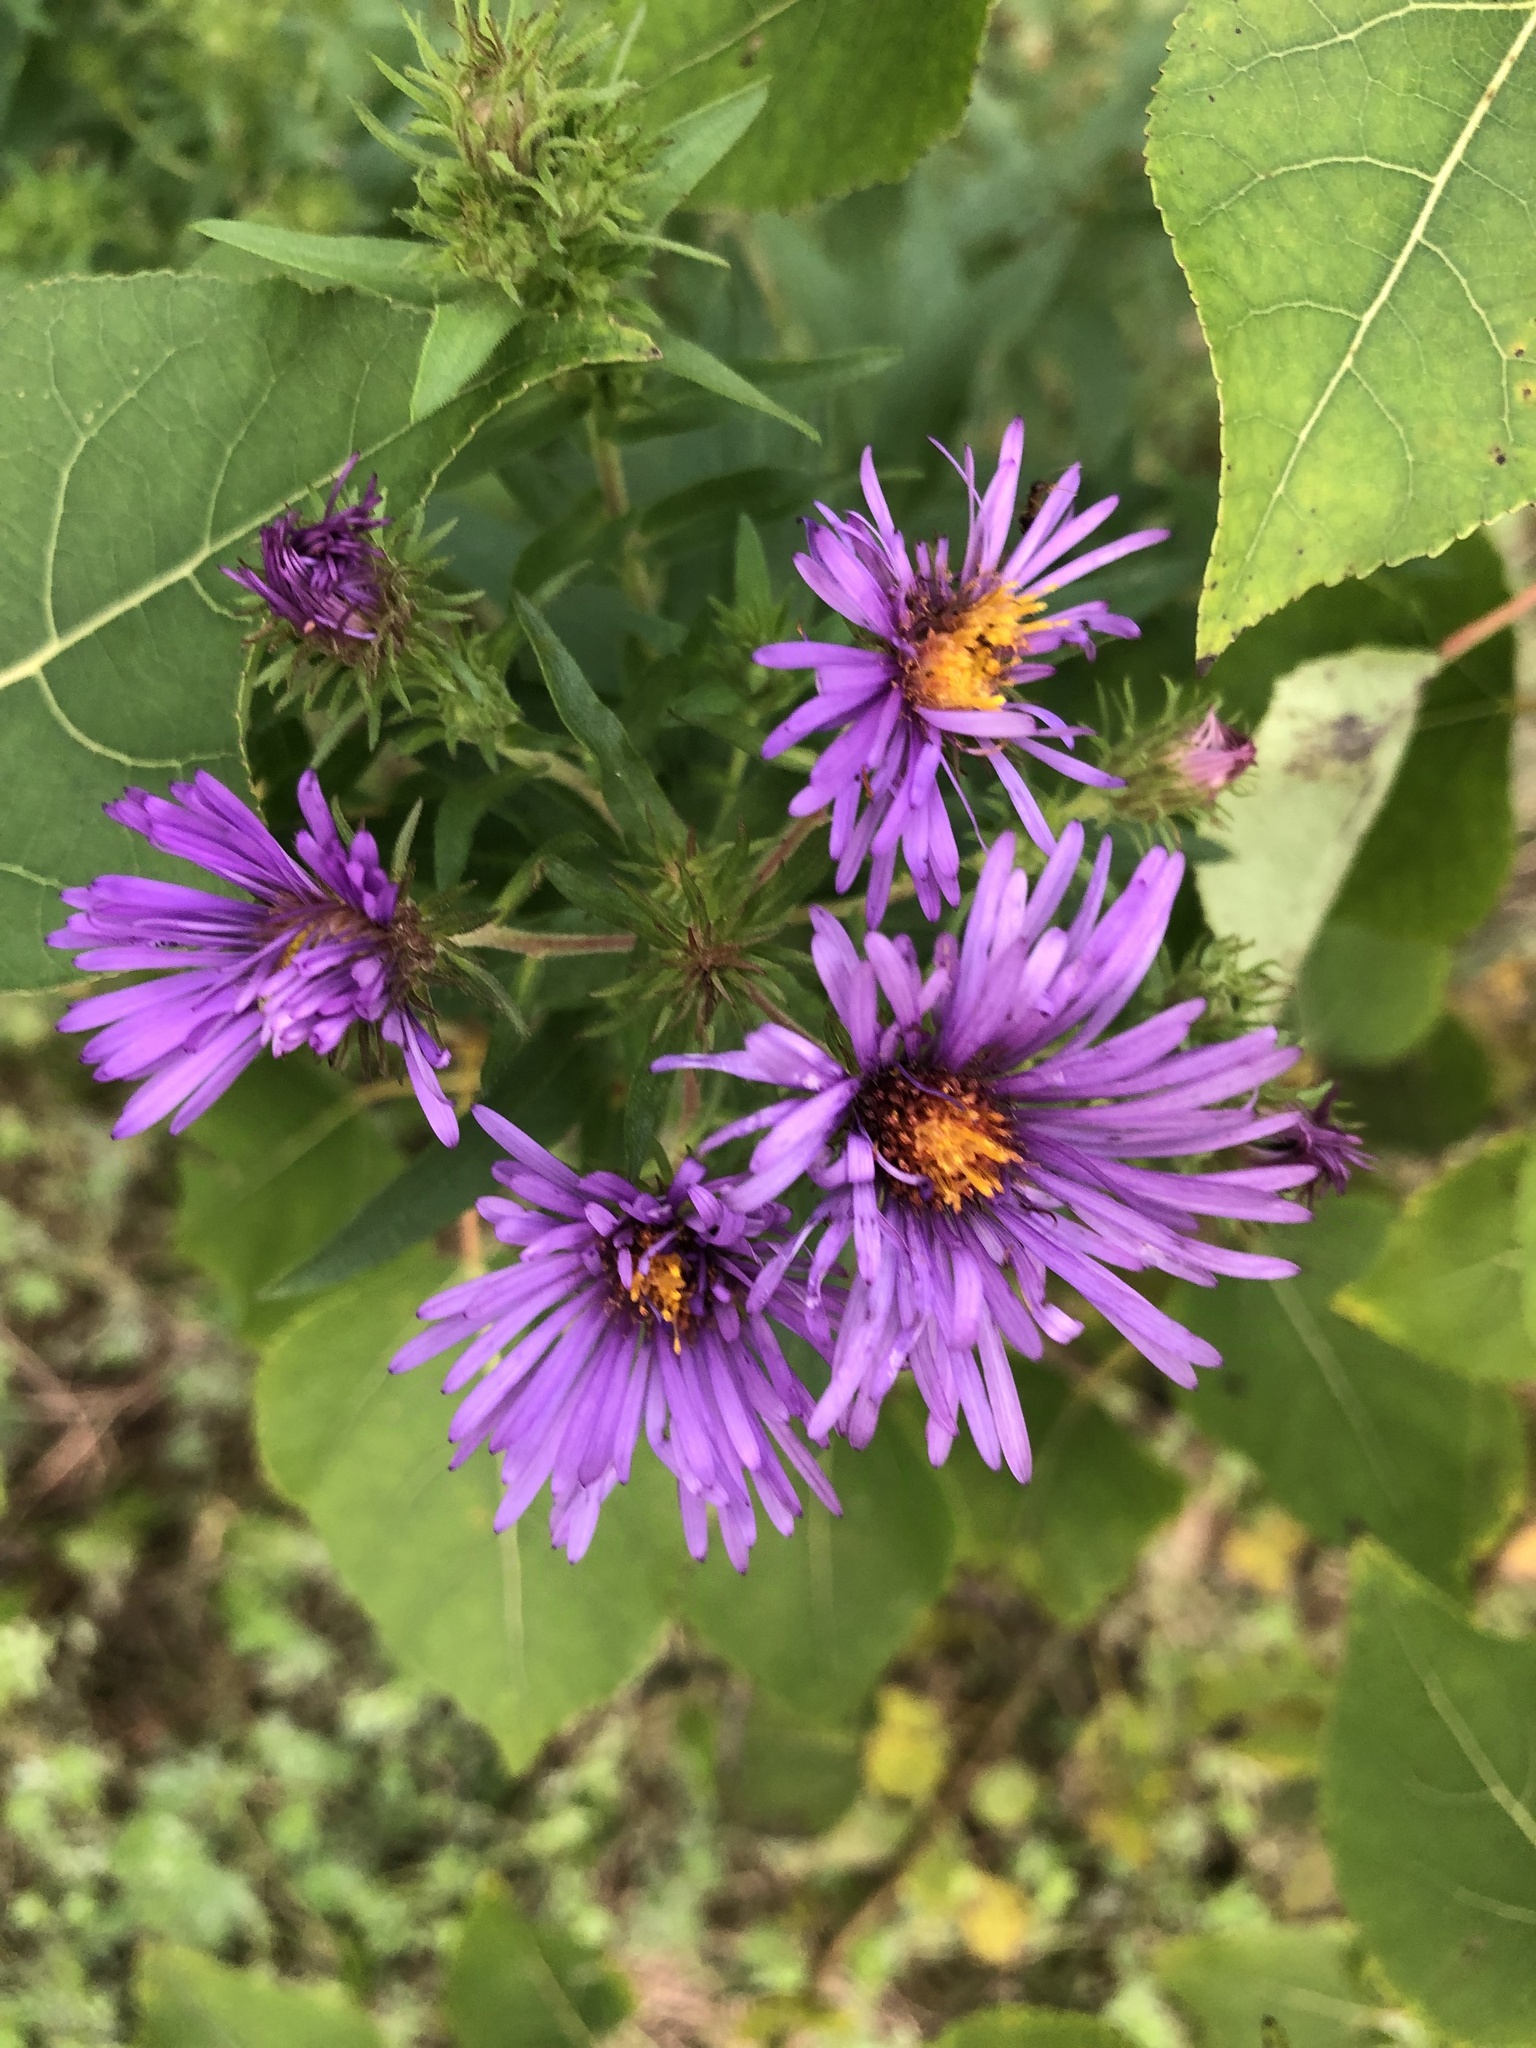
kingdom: Plantae
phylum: Tracheophyta
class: Magnoliopsida
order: Asterales
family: Asteraceae
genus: Symphyotrichum
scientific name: Symphyotrichum novae-angliae
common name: Michaelmas daisy
